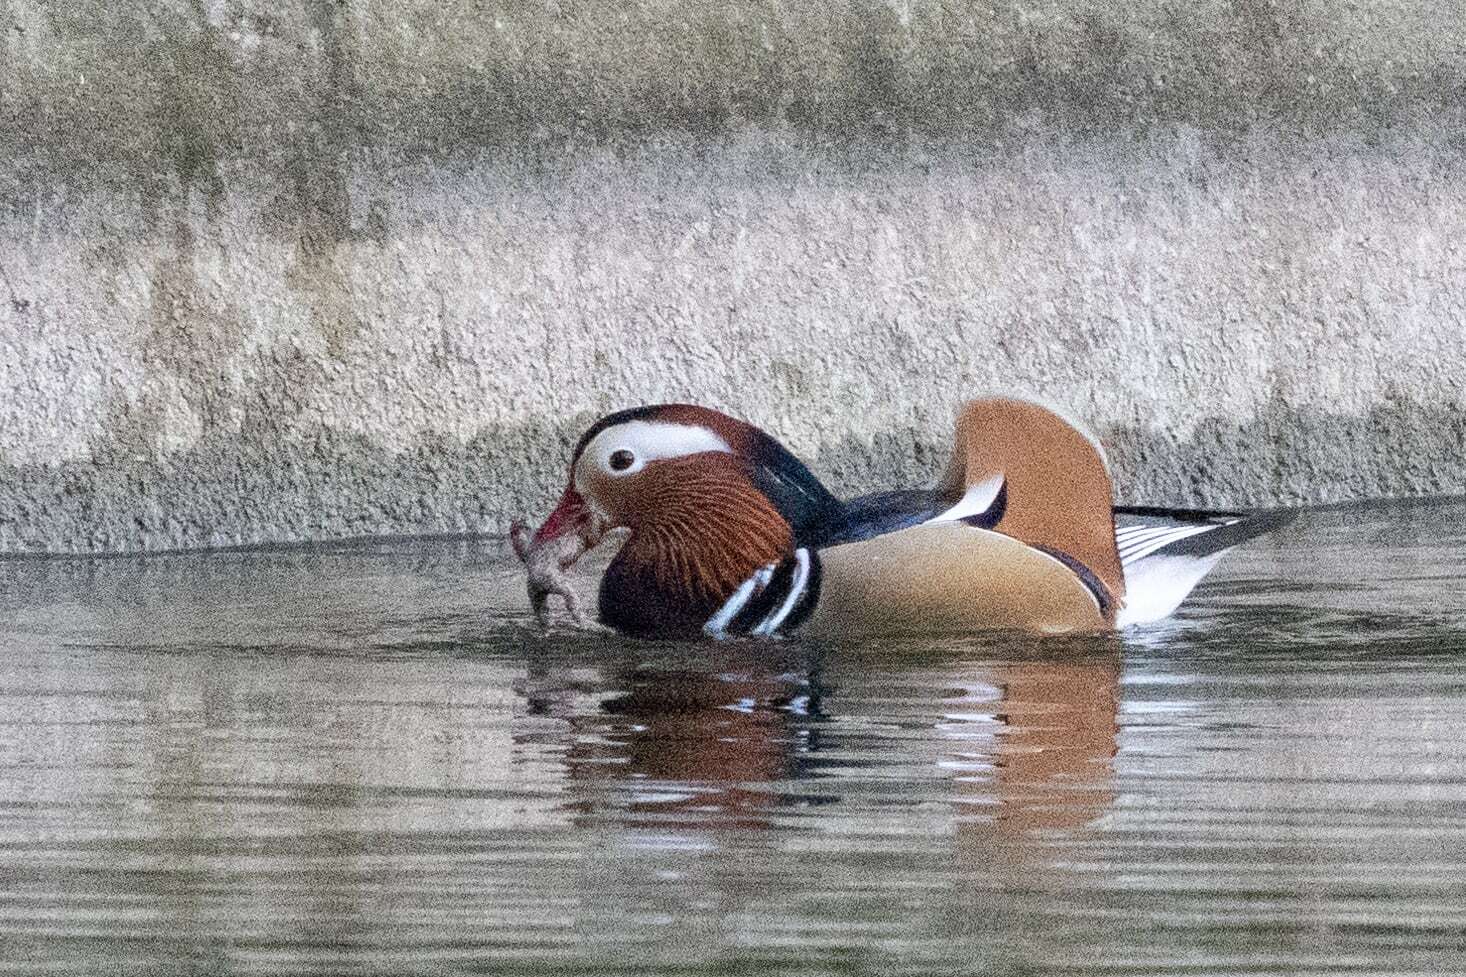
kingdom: Animalia
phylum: Chordata
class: Aves
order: Anseriformes
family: Anatidae
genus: Aix
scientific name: Aix galericulata
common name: Mandarin duck
